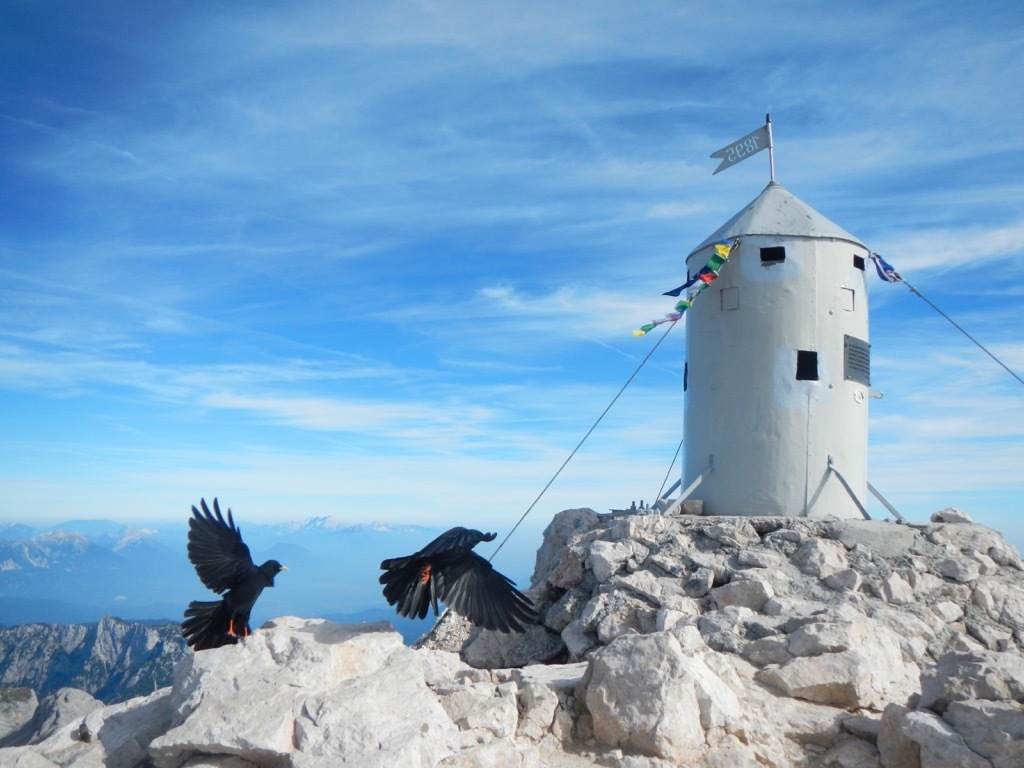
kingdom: Animalia
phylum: Chordata
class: Aves
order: Passeriformes
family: Corvidae
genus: Pyrrhocorax
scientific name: Pyrrhocorax graculus
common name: Alpine chough
